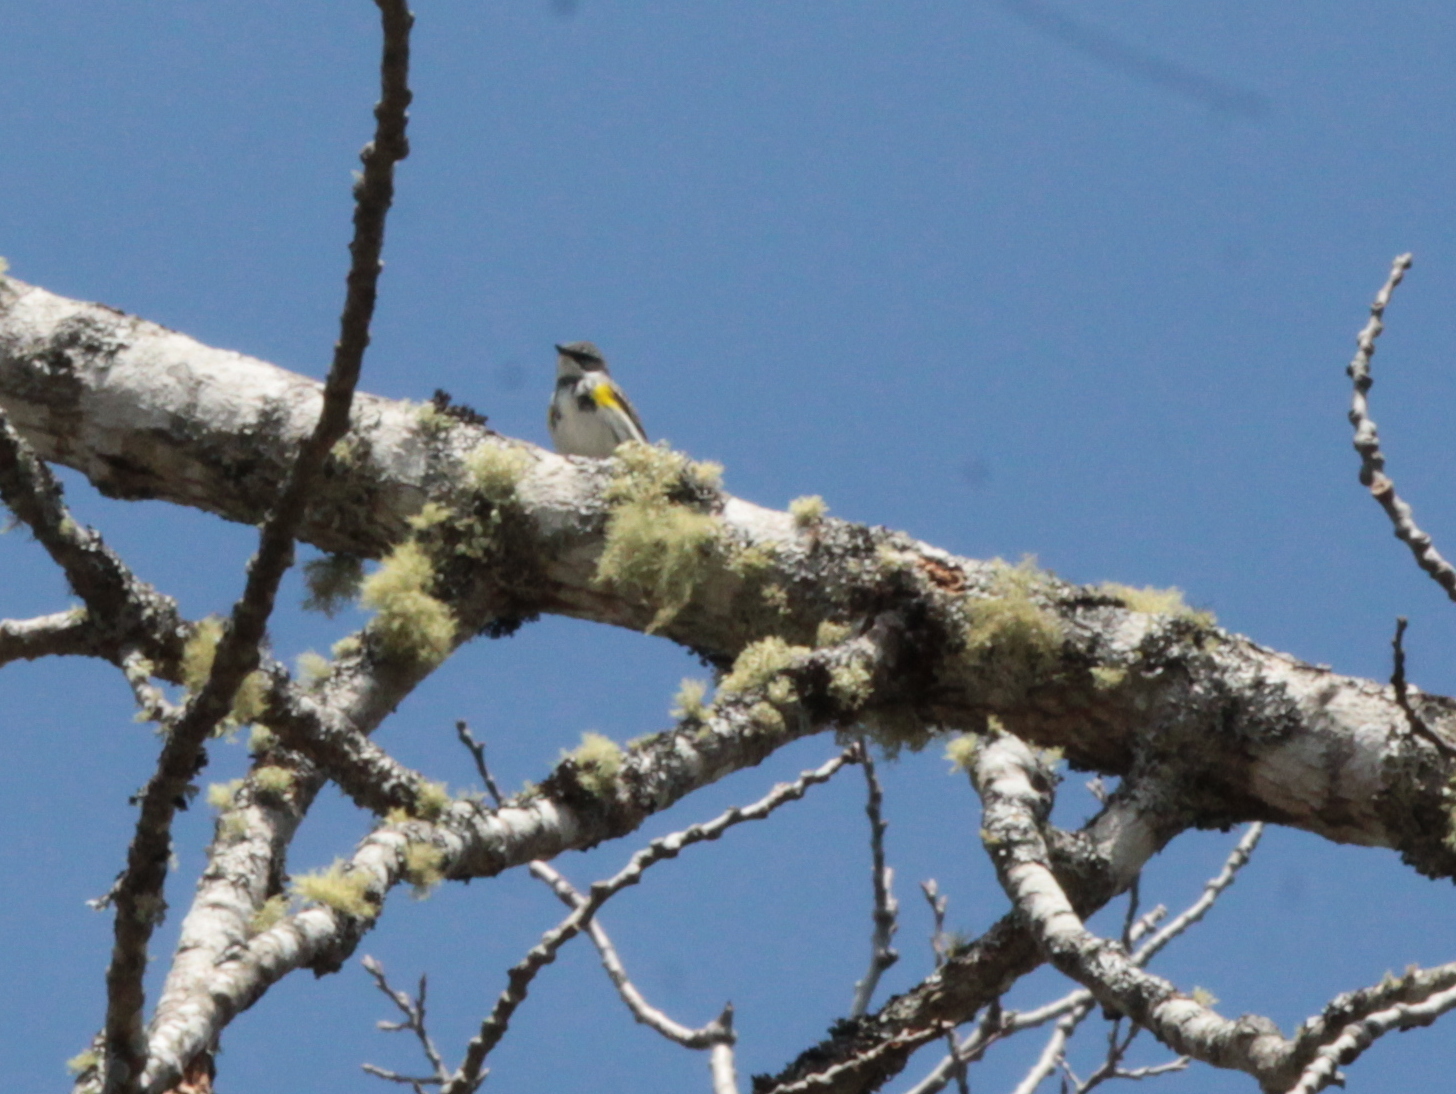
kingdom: Animalia
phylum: Chordata
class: Aves
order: Passeriformes
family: Parulidae
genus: Setophaga
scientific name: Setophaga coronata
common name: Myrtle warbler
